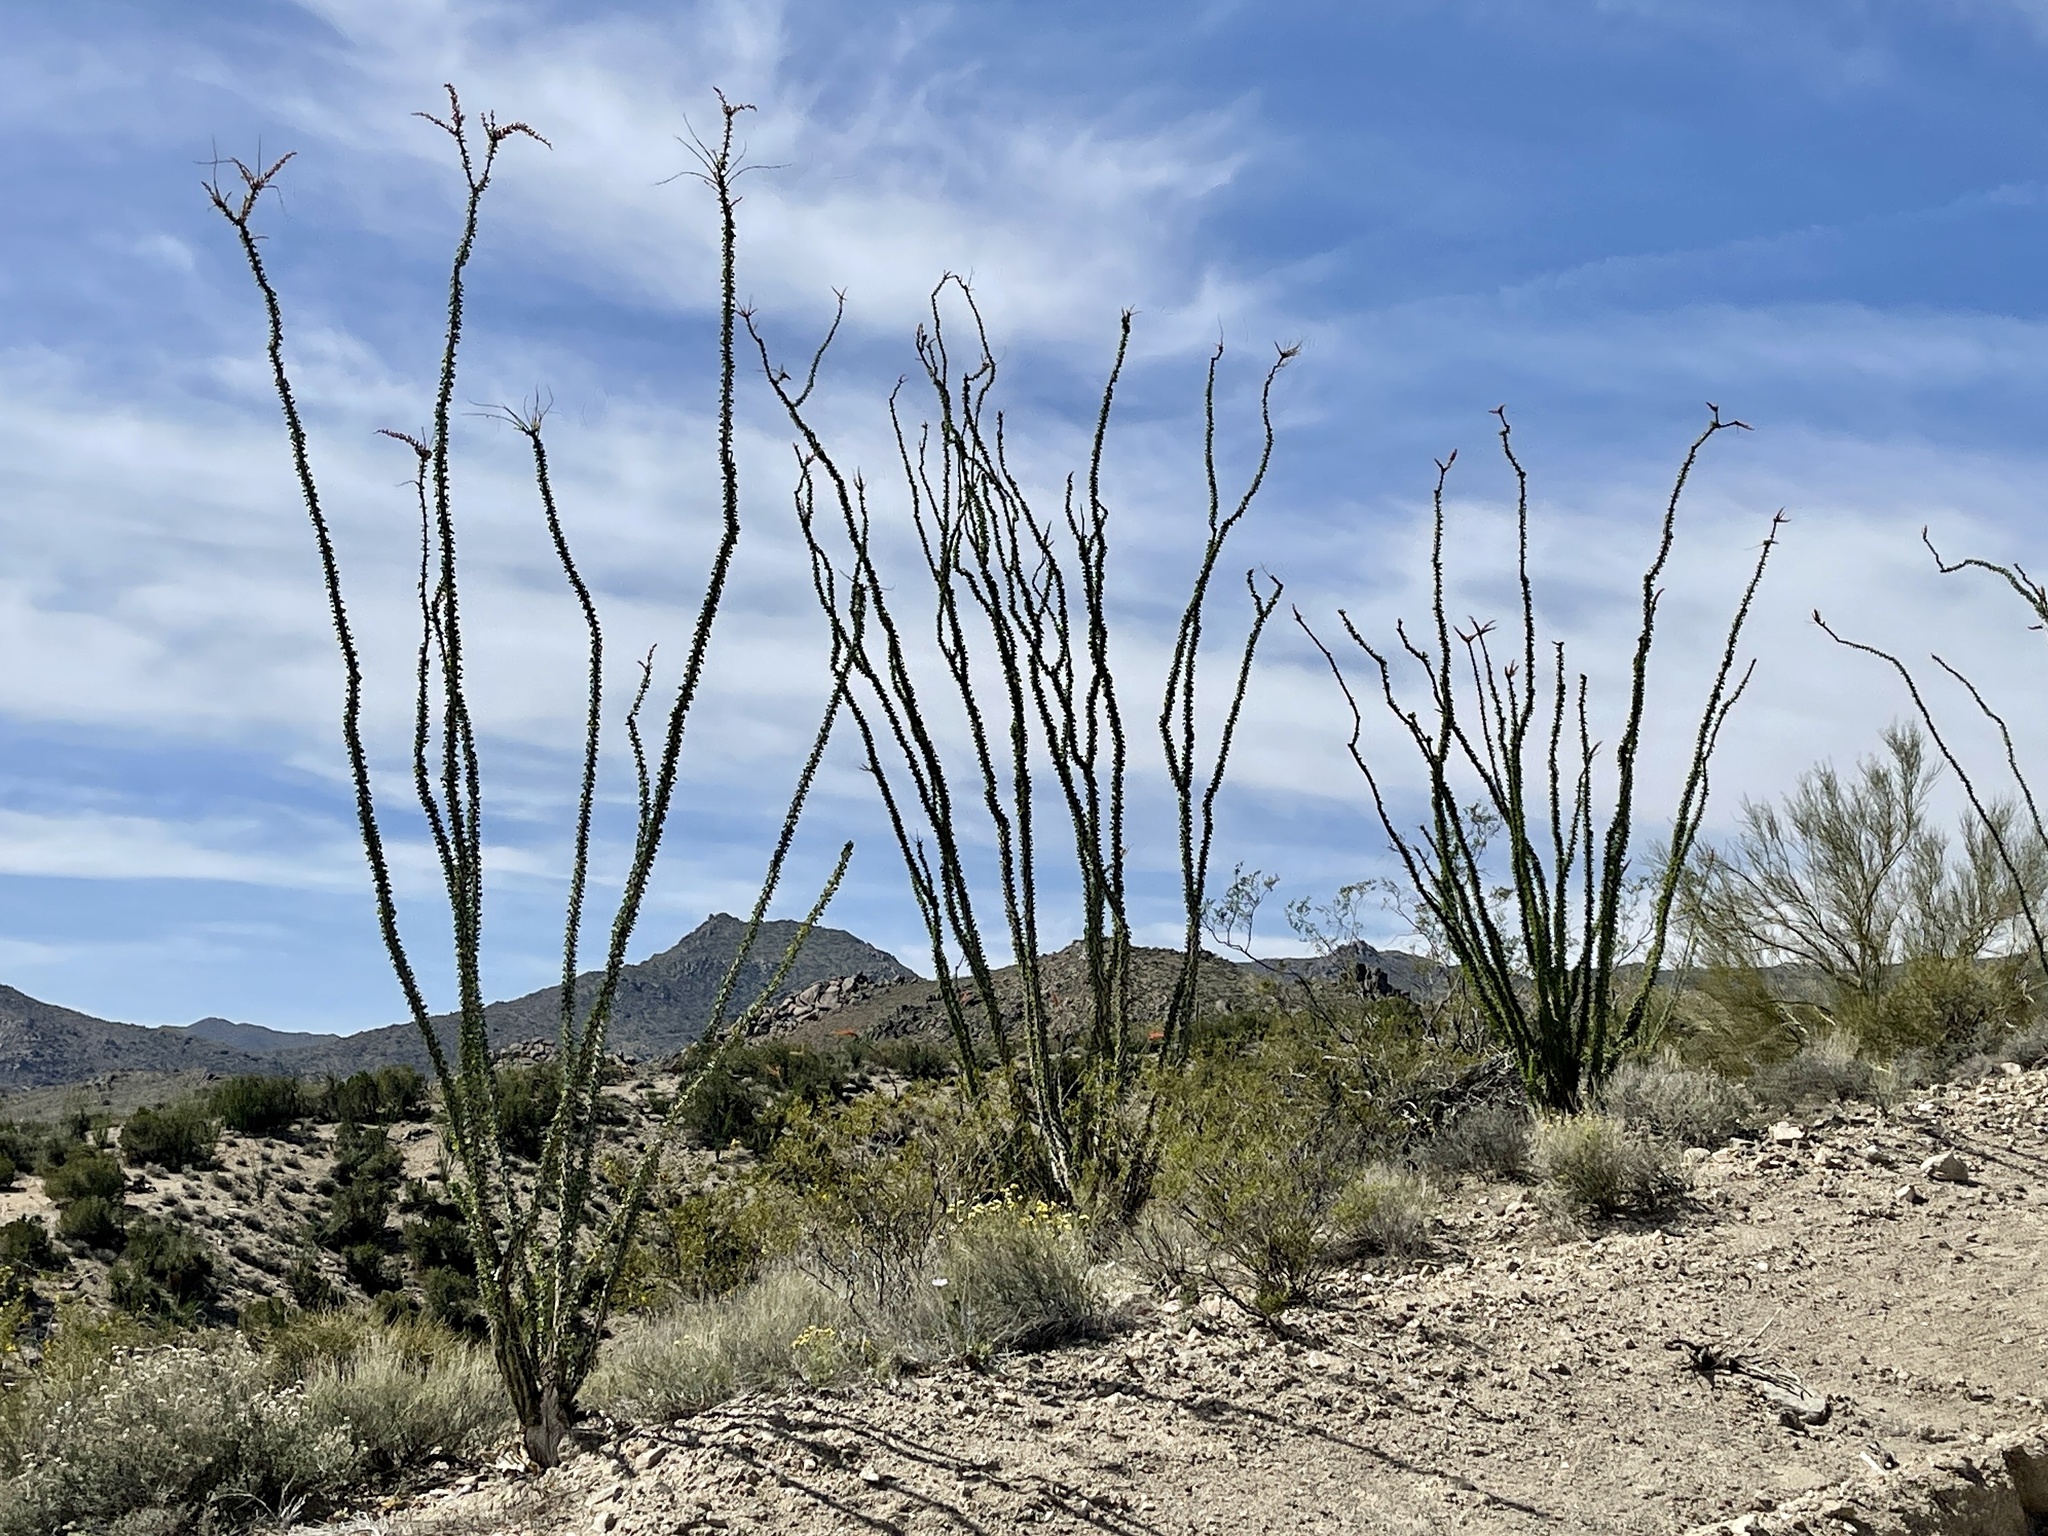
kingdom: Plantae
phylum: Tracheophyta
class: Magnoliopsida
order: Ericales
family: Fouquieriaceae
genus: Fouquieria
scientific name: Fouquieria splendens
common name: Vine-cactus
